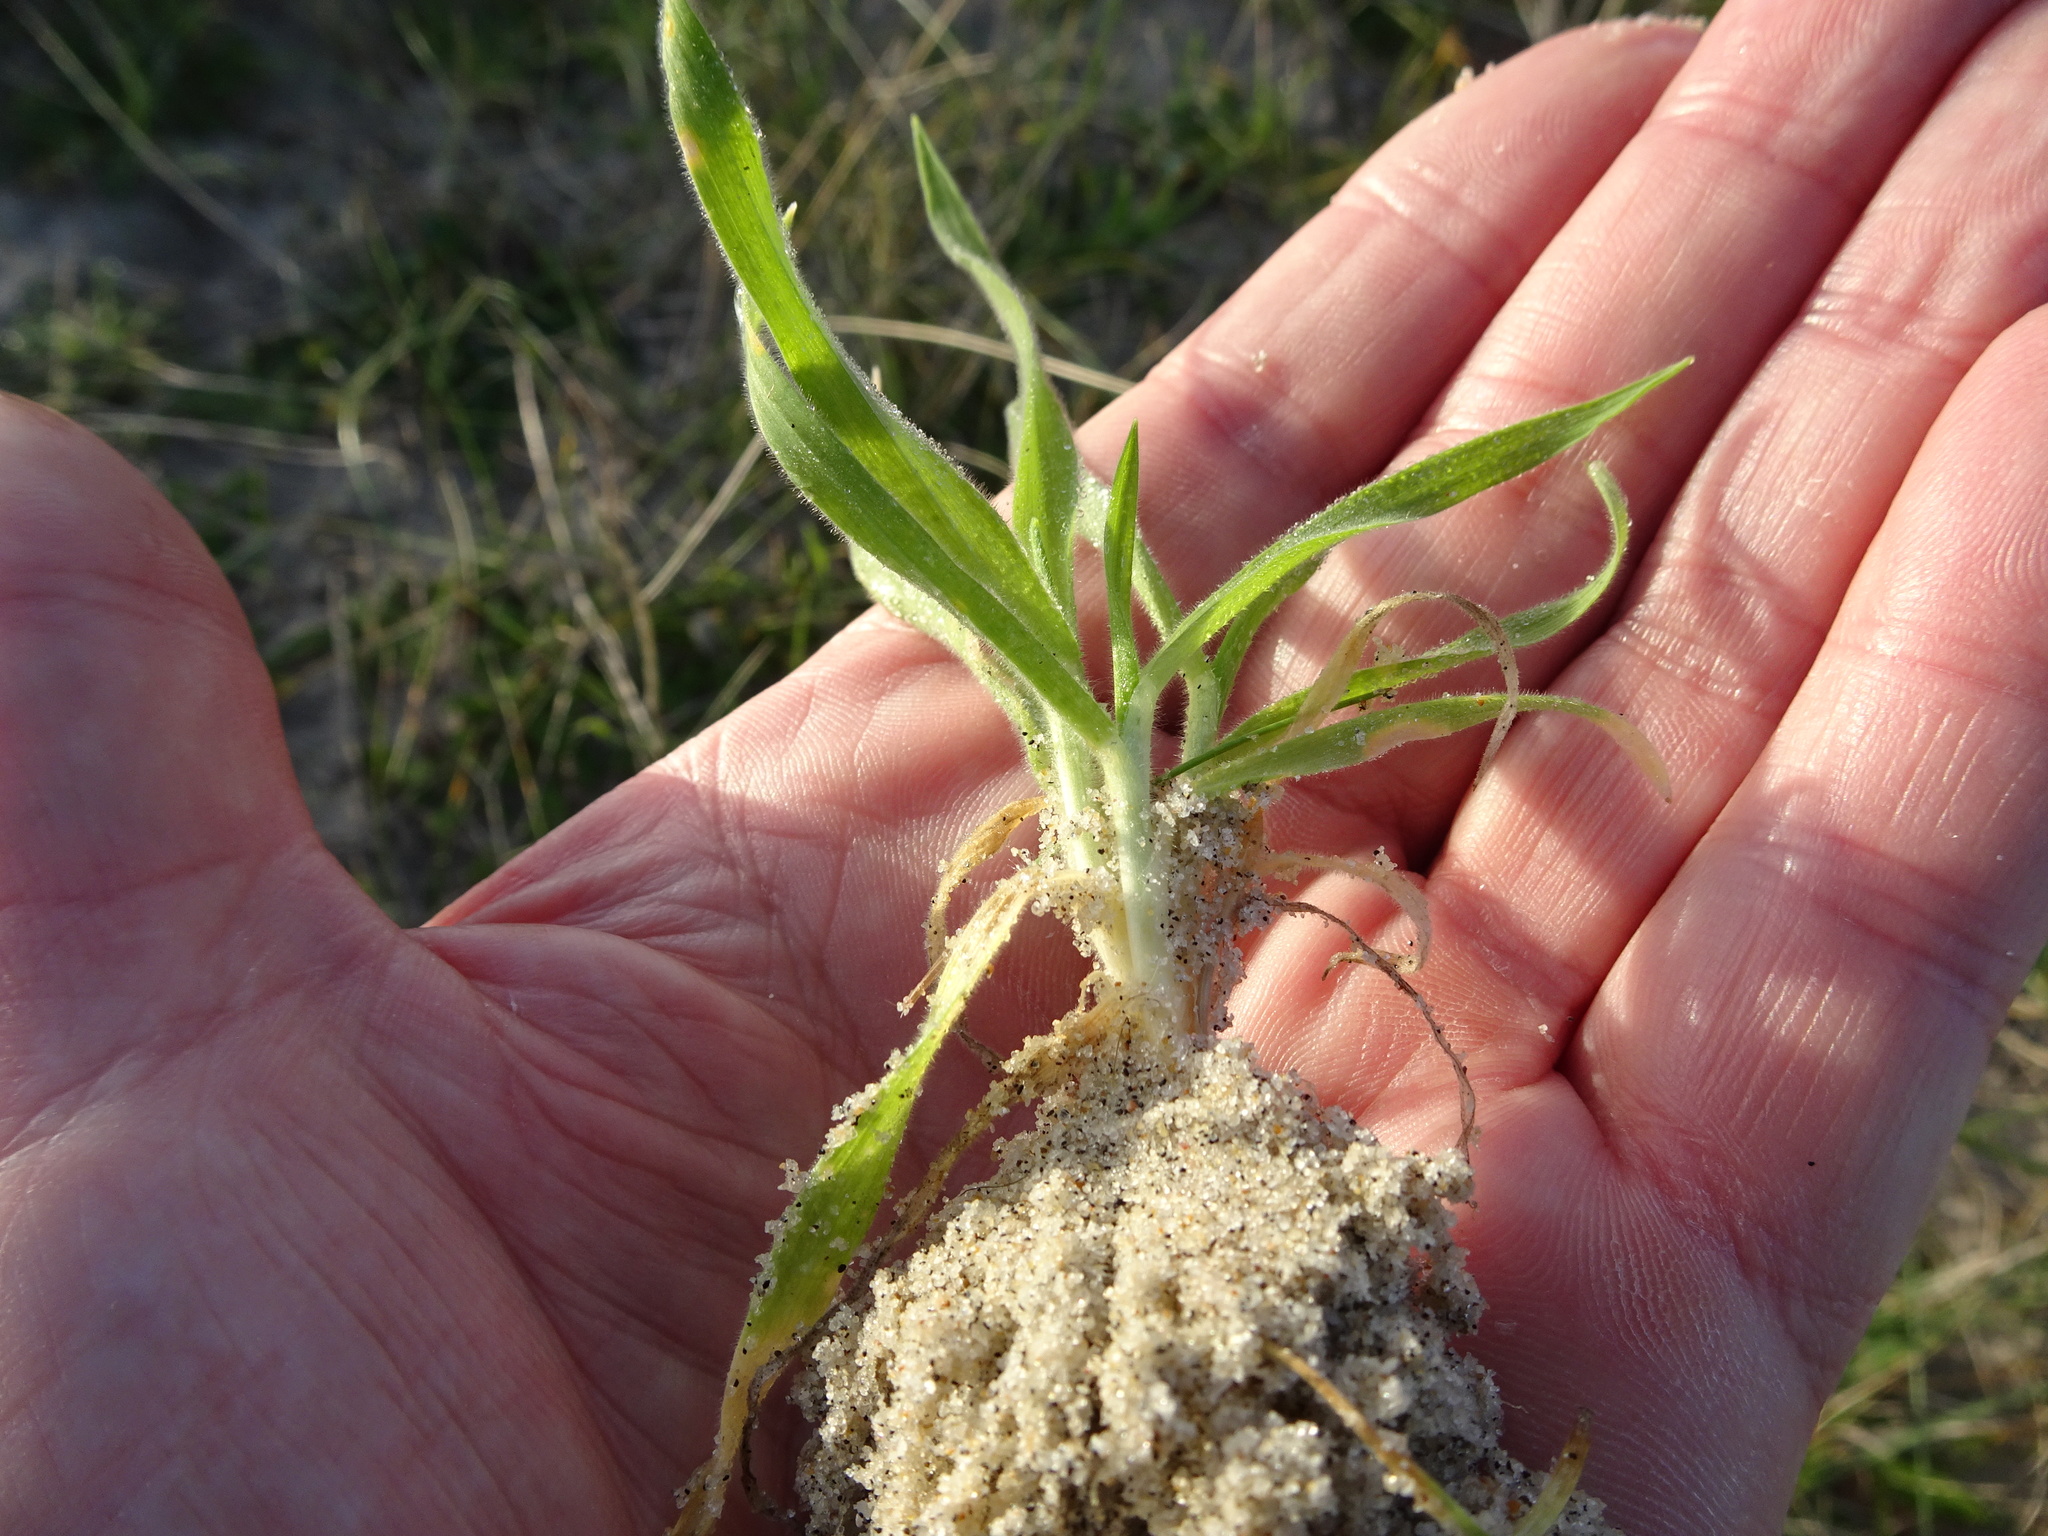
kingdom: Plantae
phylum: Tracheophyta
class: Liliopsida
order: Poales
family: Poaceae
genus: Lagurus
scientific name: Lagurus ovatus
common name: Hare's-tail
